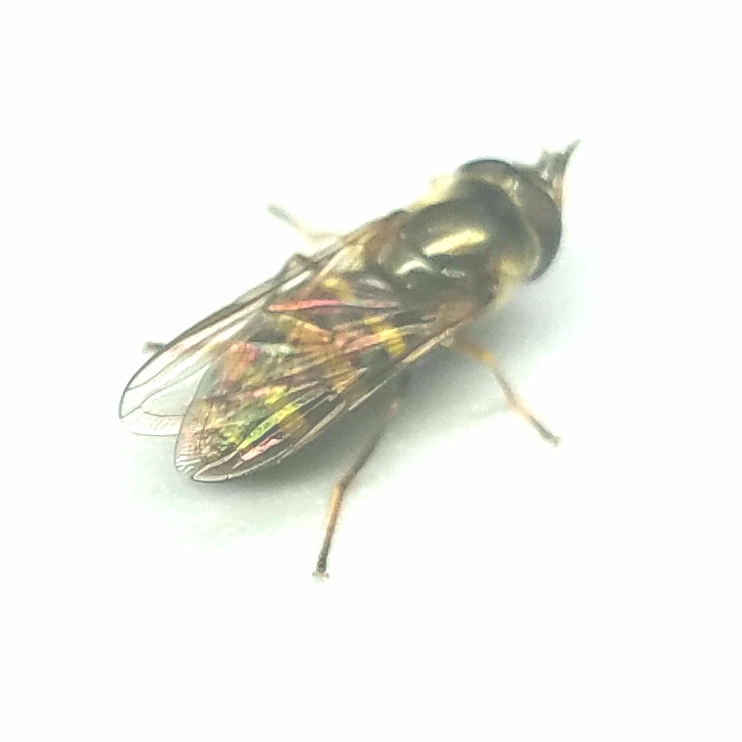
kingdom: Animalia
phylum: Arthropoda
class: Insecta
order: Diptera
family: Syrphidae
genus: Eupeodes
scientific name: Eupeodes
